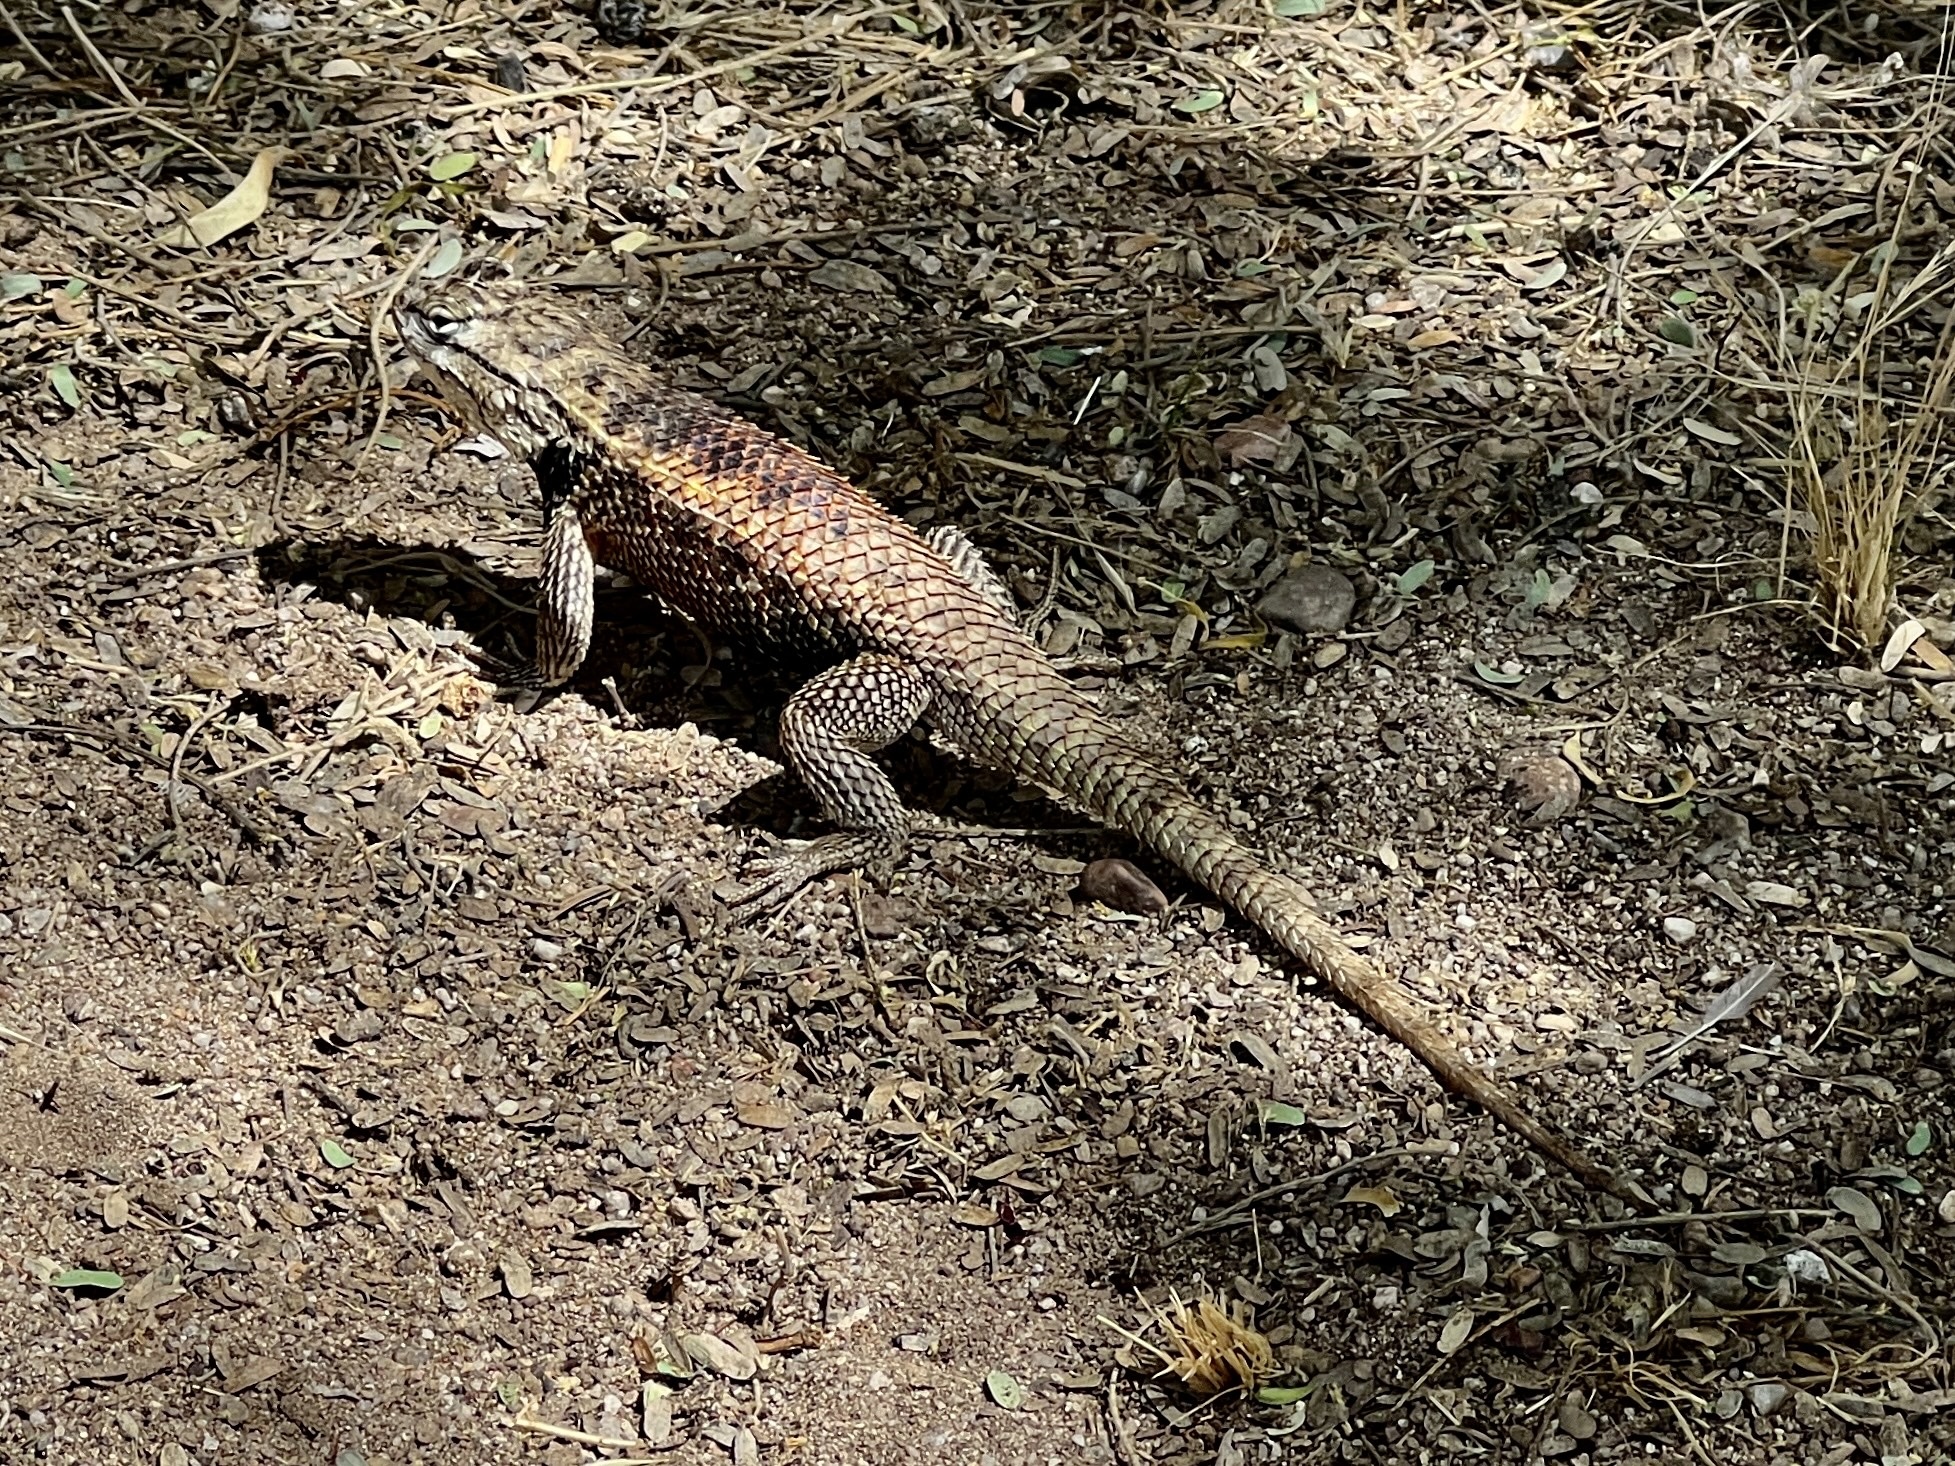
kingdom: Animalia
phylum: Chordata
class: Squamata
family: Phrynosomatidae
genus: Sceloporus
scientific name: Sceloporus magister
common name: Desert spiny lizard
